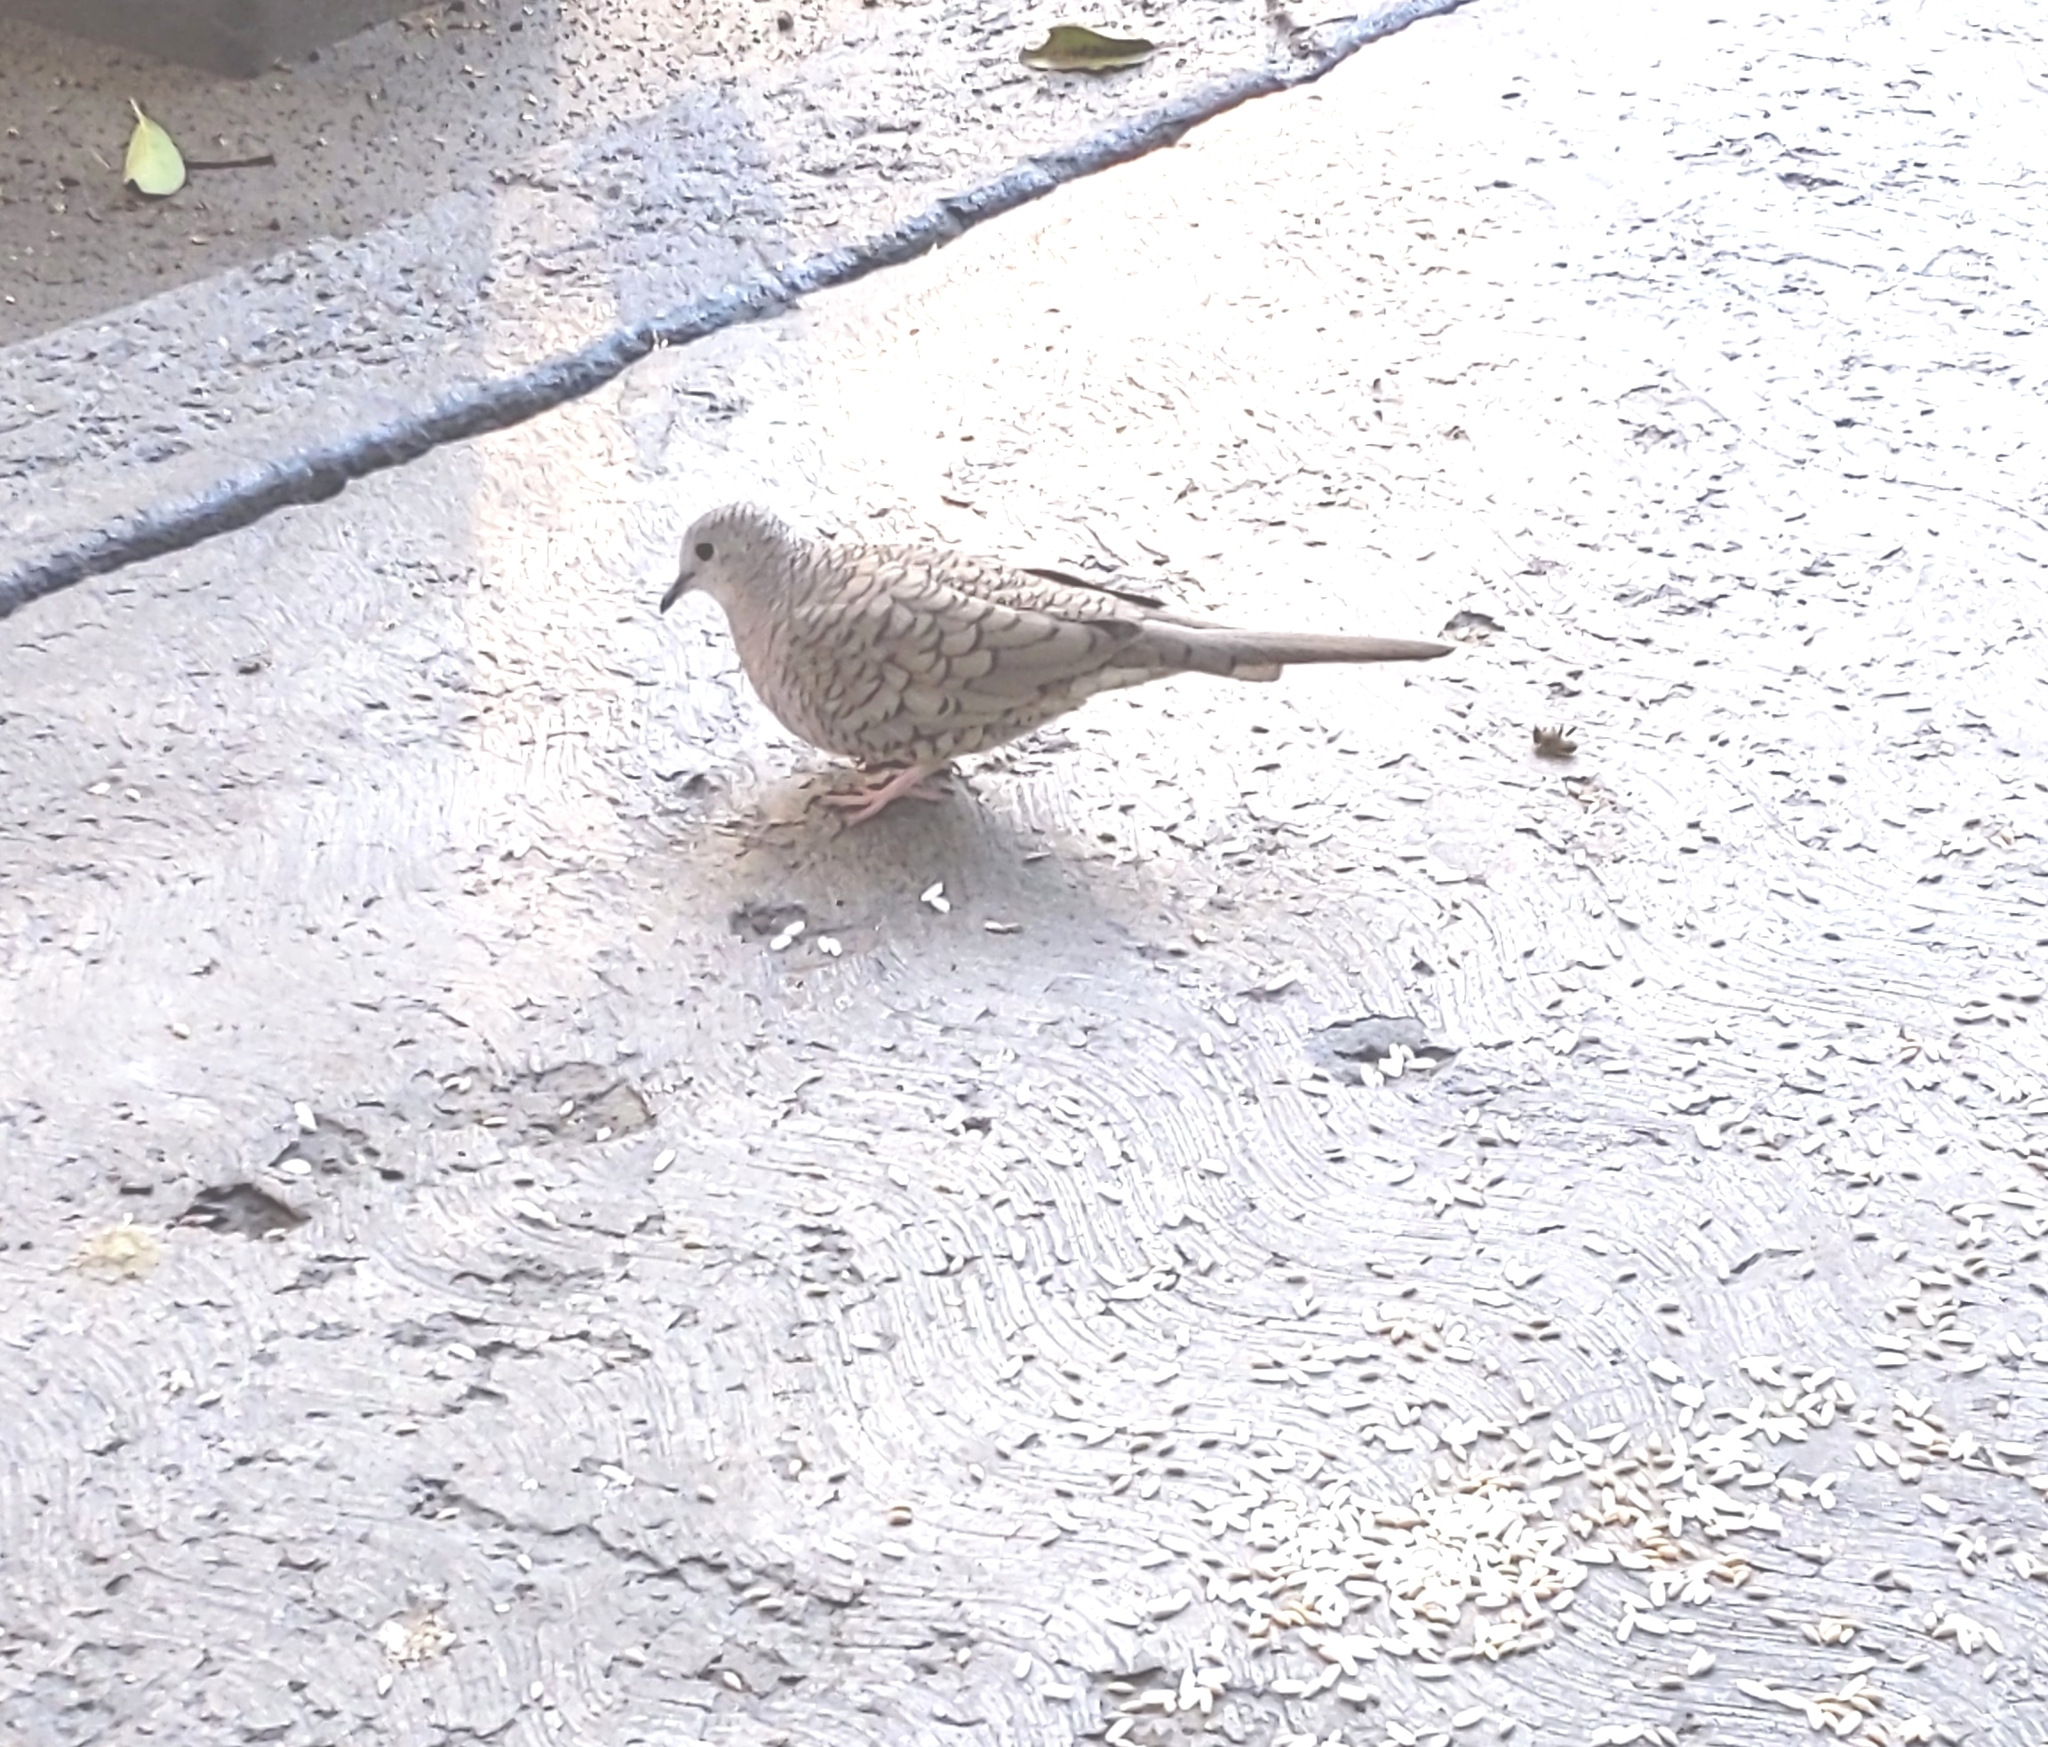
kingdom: Animalia
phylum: Chordata
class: Aves
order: Columbiformes
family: Columbidae
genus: Columbina
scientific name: Columbina inca
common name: Inca dove
